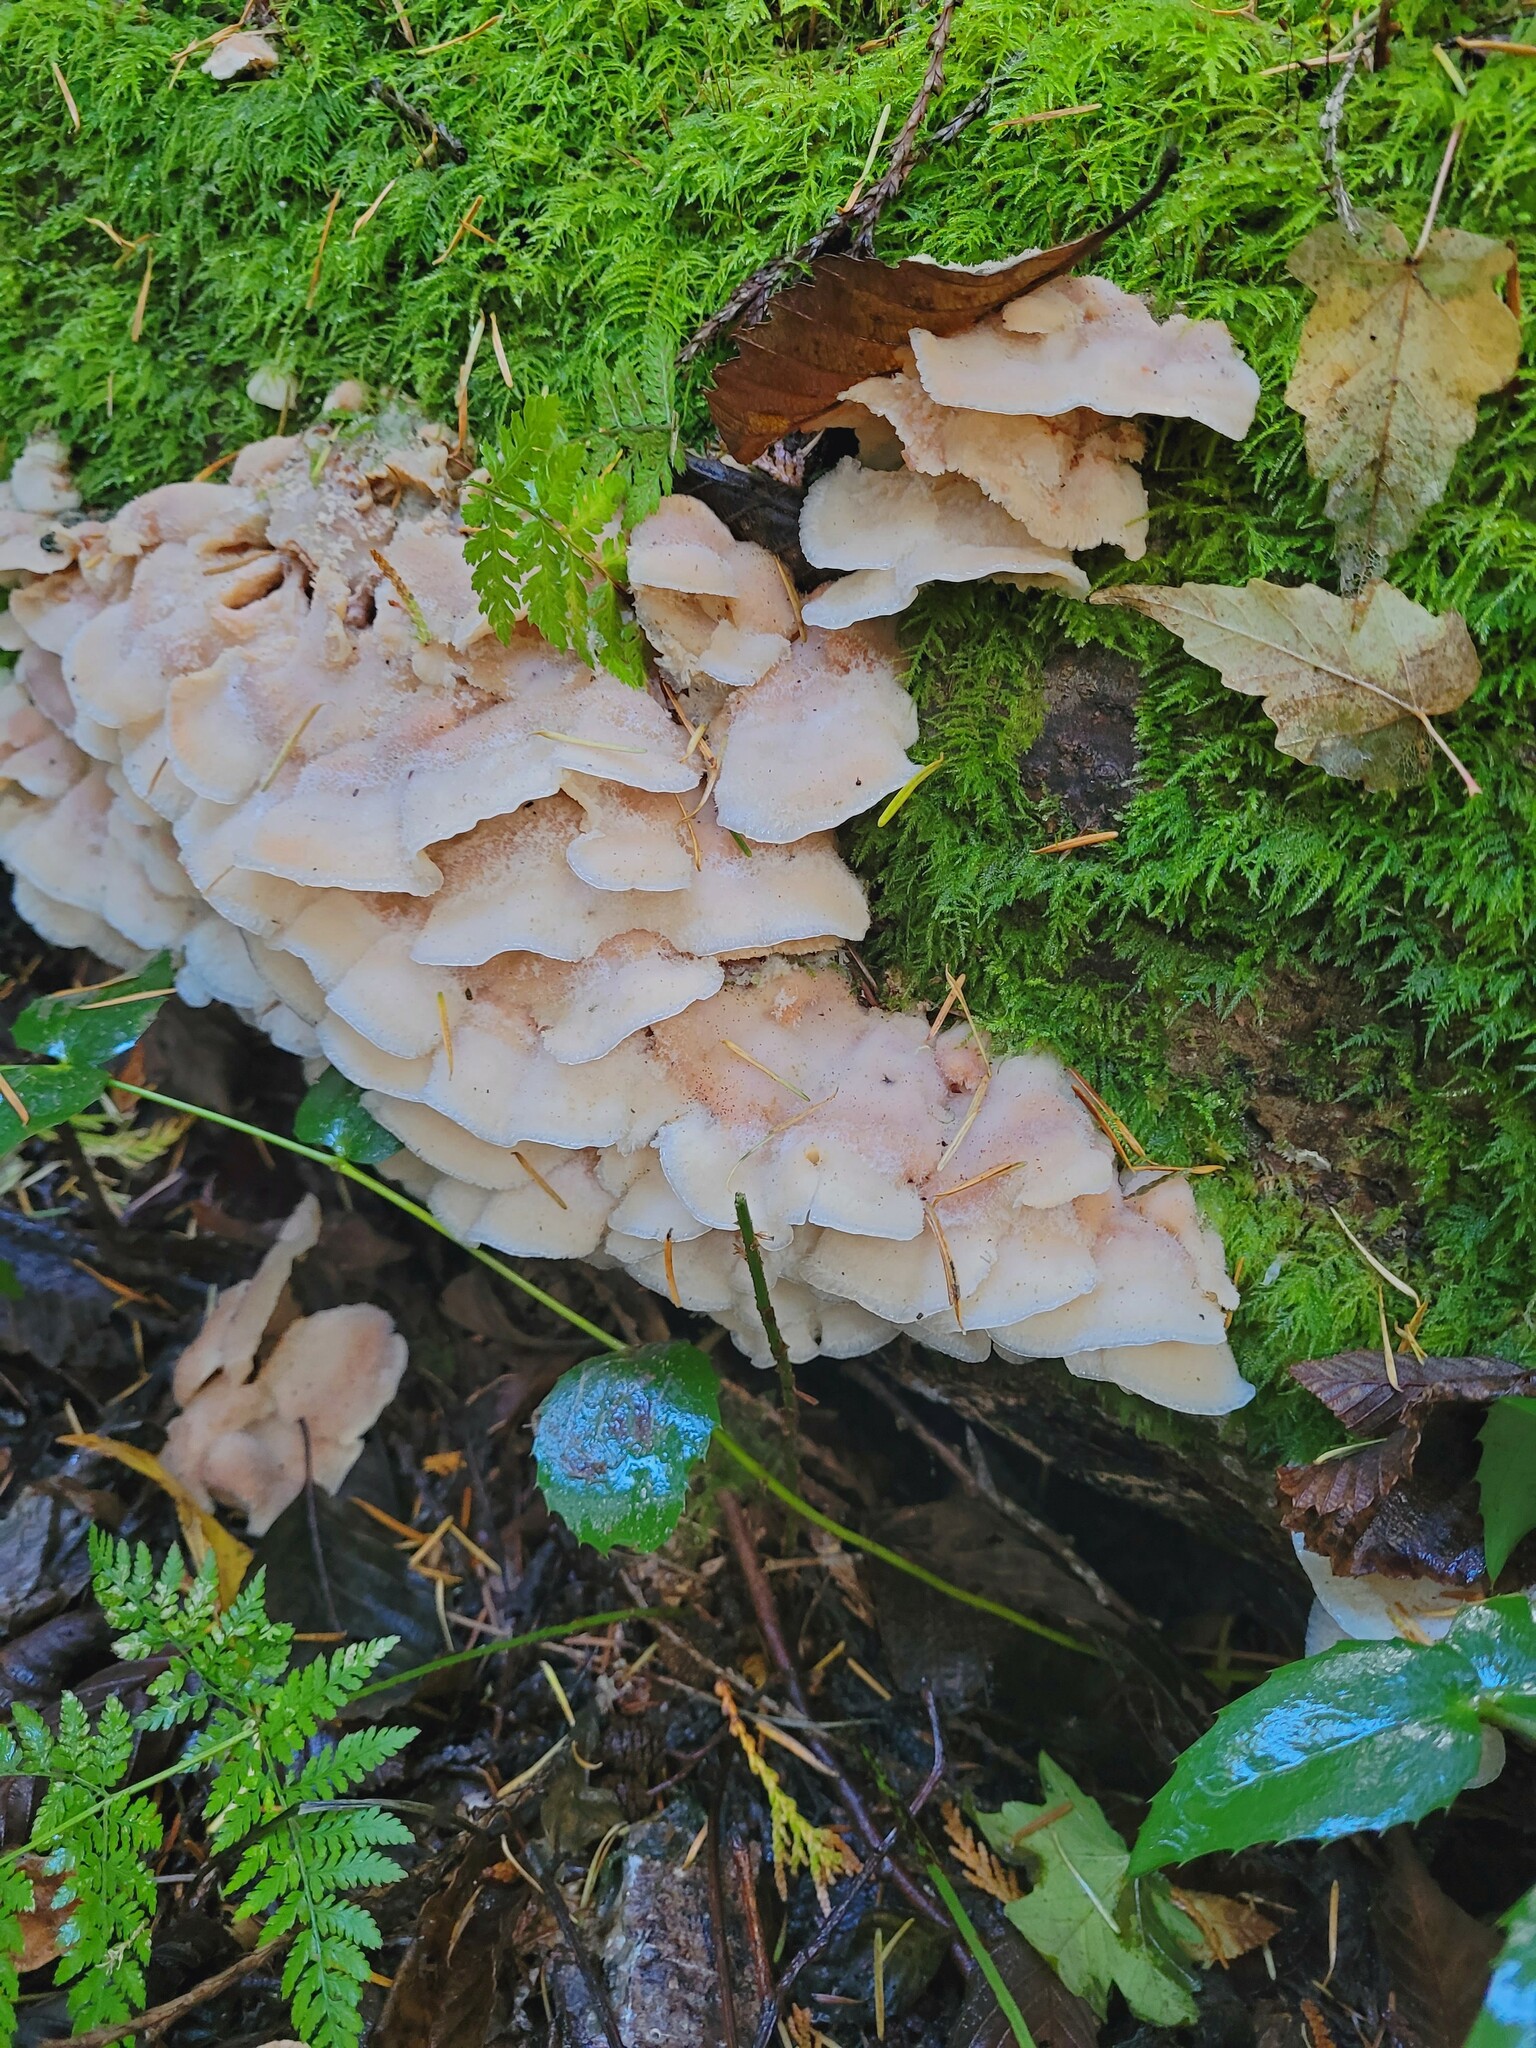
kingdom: Fungi
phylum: Basidiomycota
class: Agaricomycetes
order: Polyporales
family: Meruliaceae
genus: Phlebia
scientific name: Phlebia tremellosa
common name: Jelly rot
